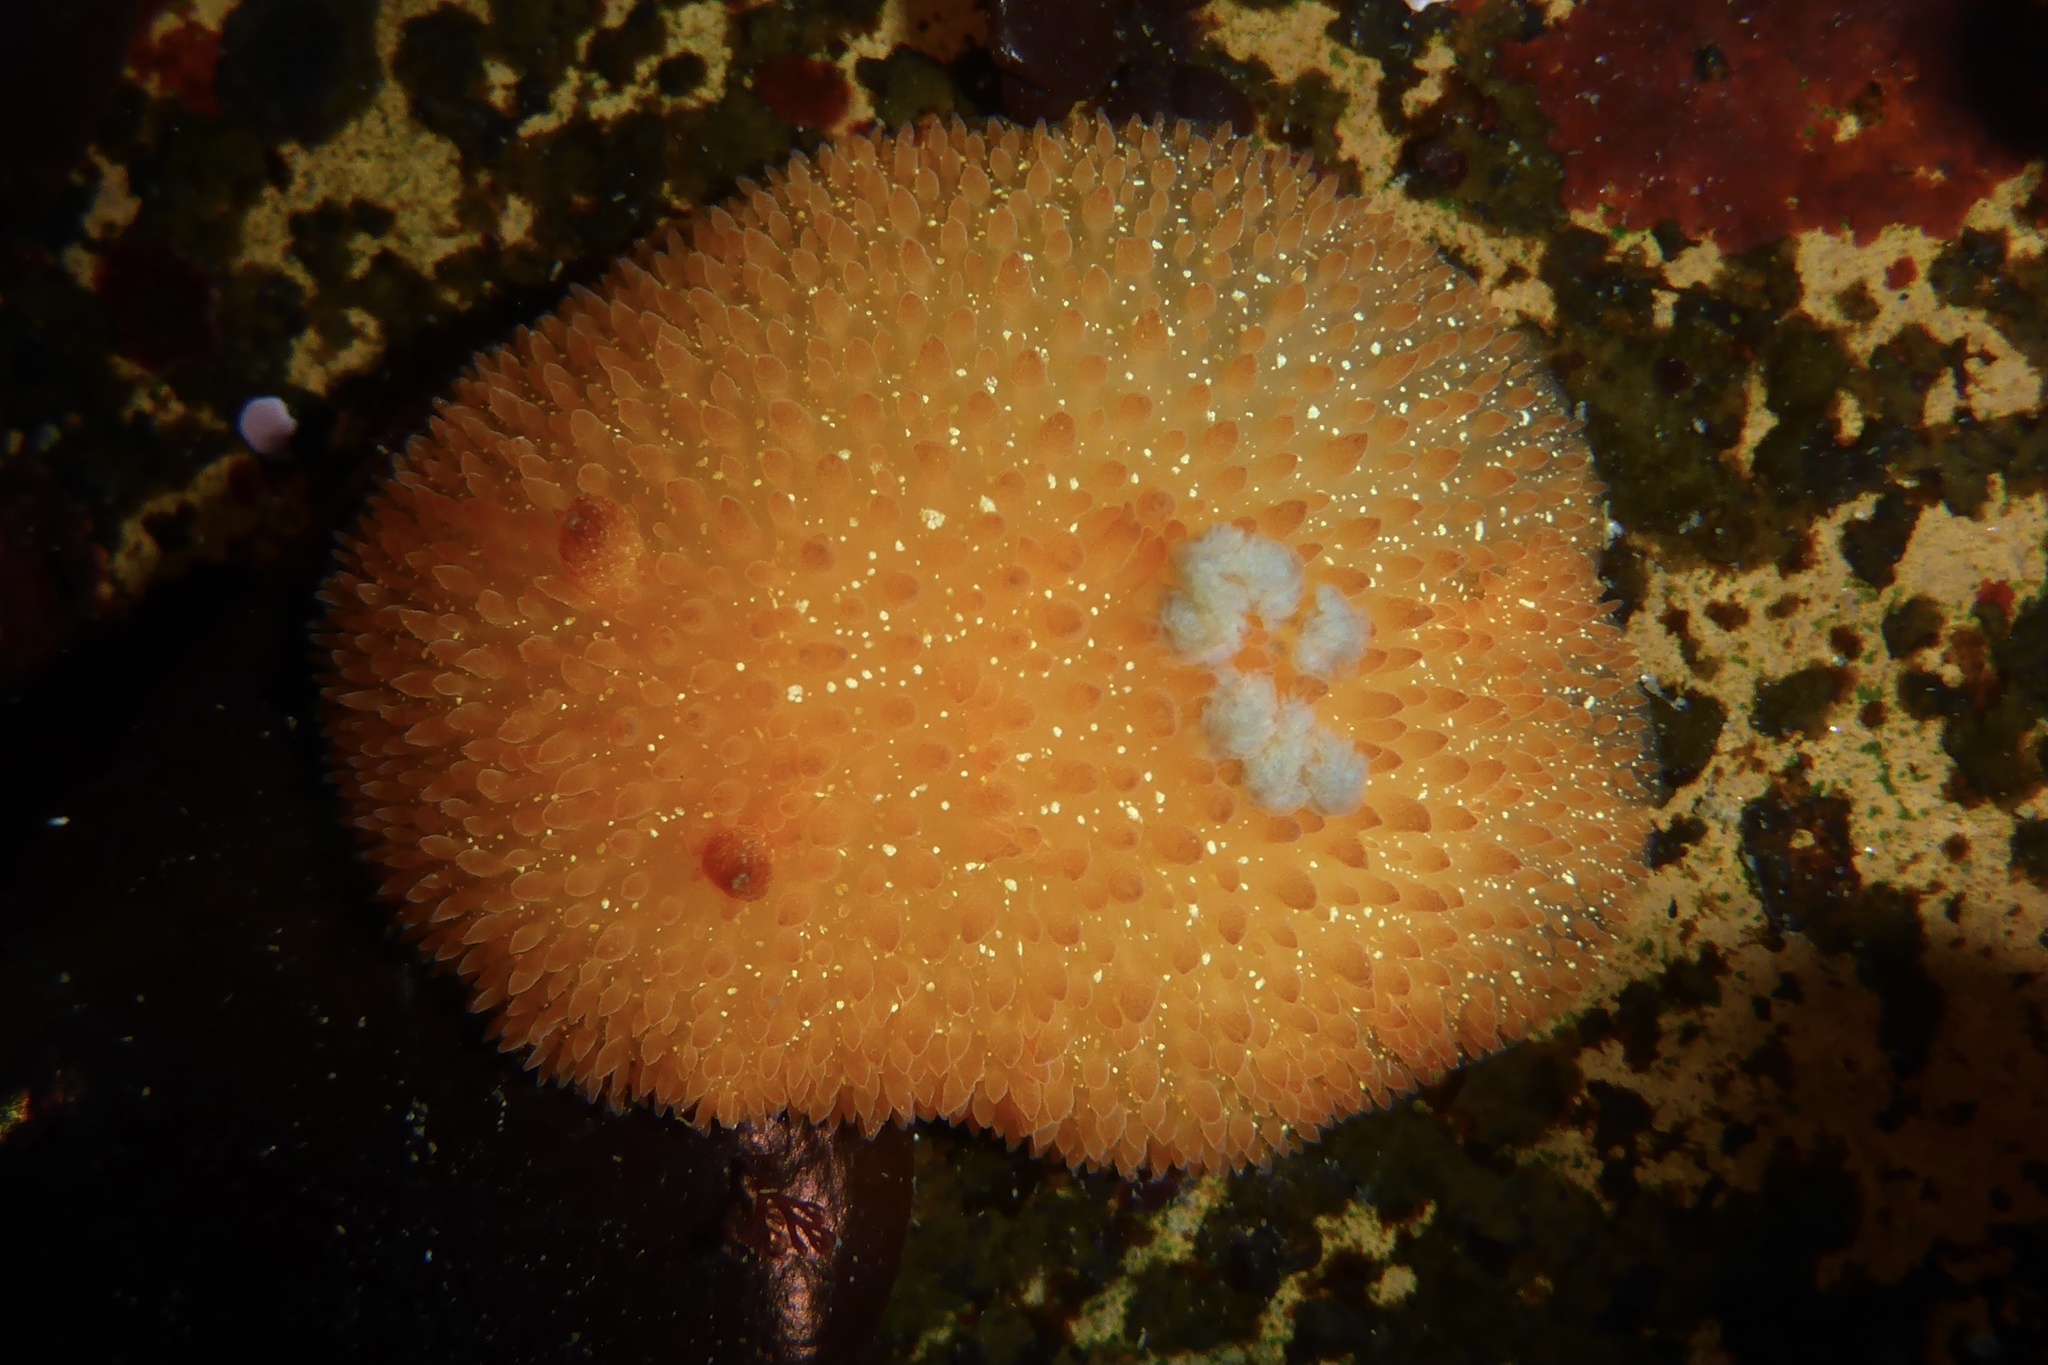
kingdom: Animalia
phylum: Mollusca
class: Gastropoda
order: Nudibranchia
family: Onchidorididae
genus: Acanthodoris
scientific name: Acanthodoris lutea
